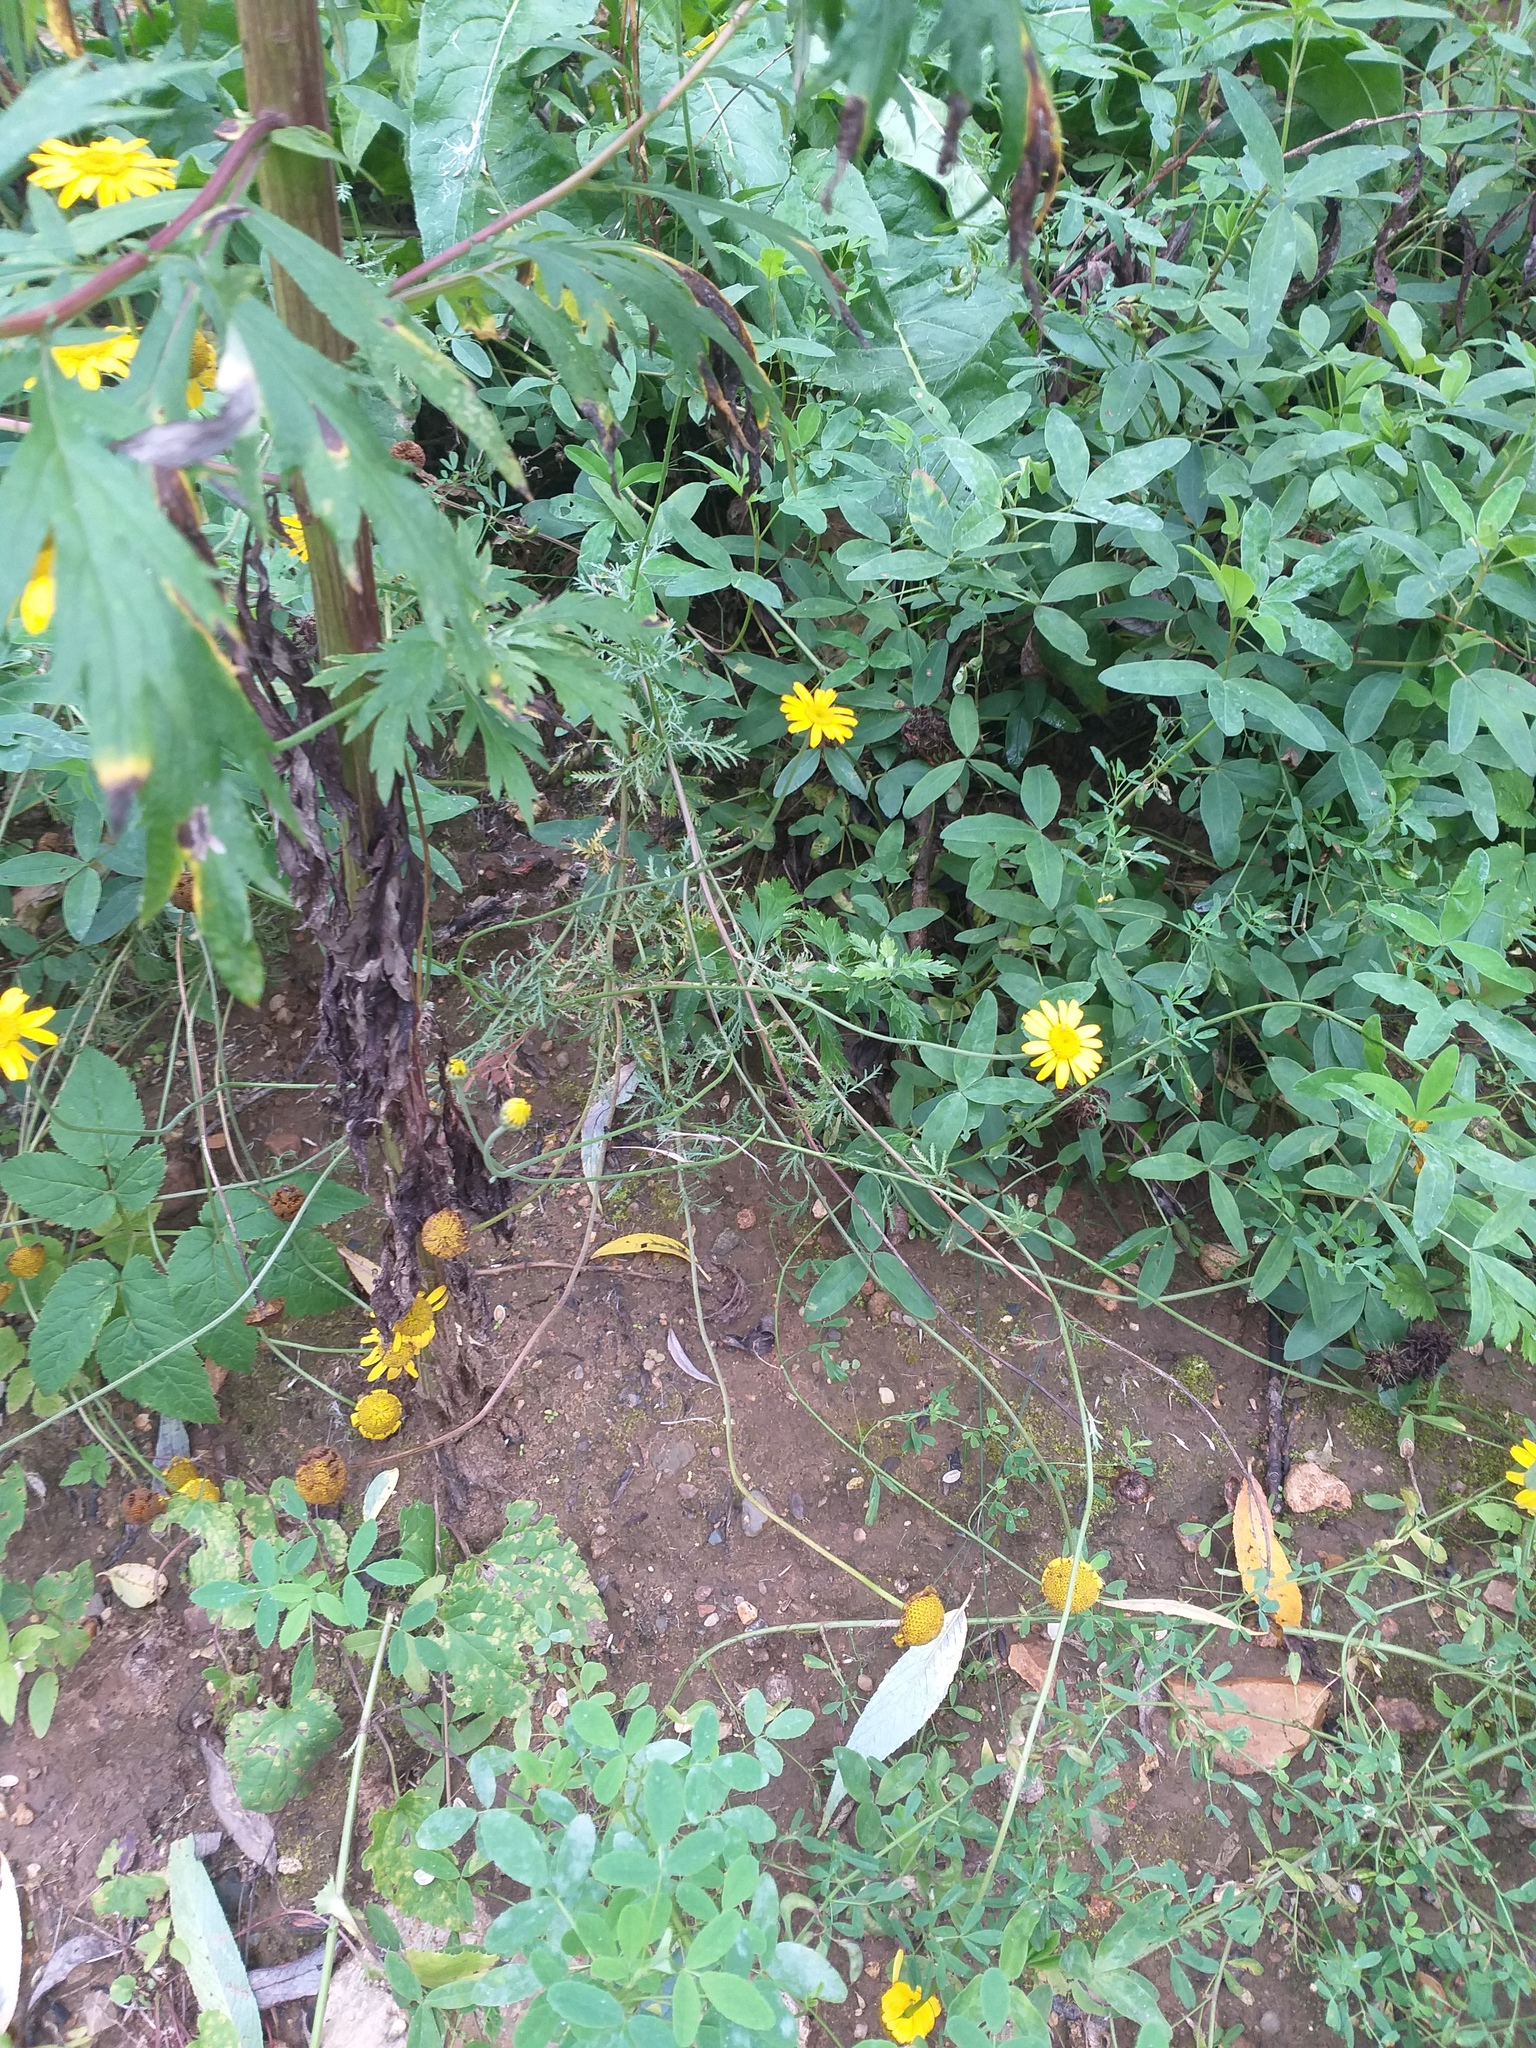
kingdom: Plantae
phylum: Tracheophyta
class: Magnoliopsida
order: Asterales
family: Asteraceae
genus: Cota
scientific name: Cota tinctoria
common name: Golden chamomile
